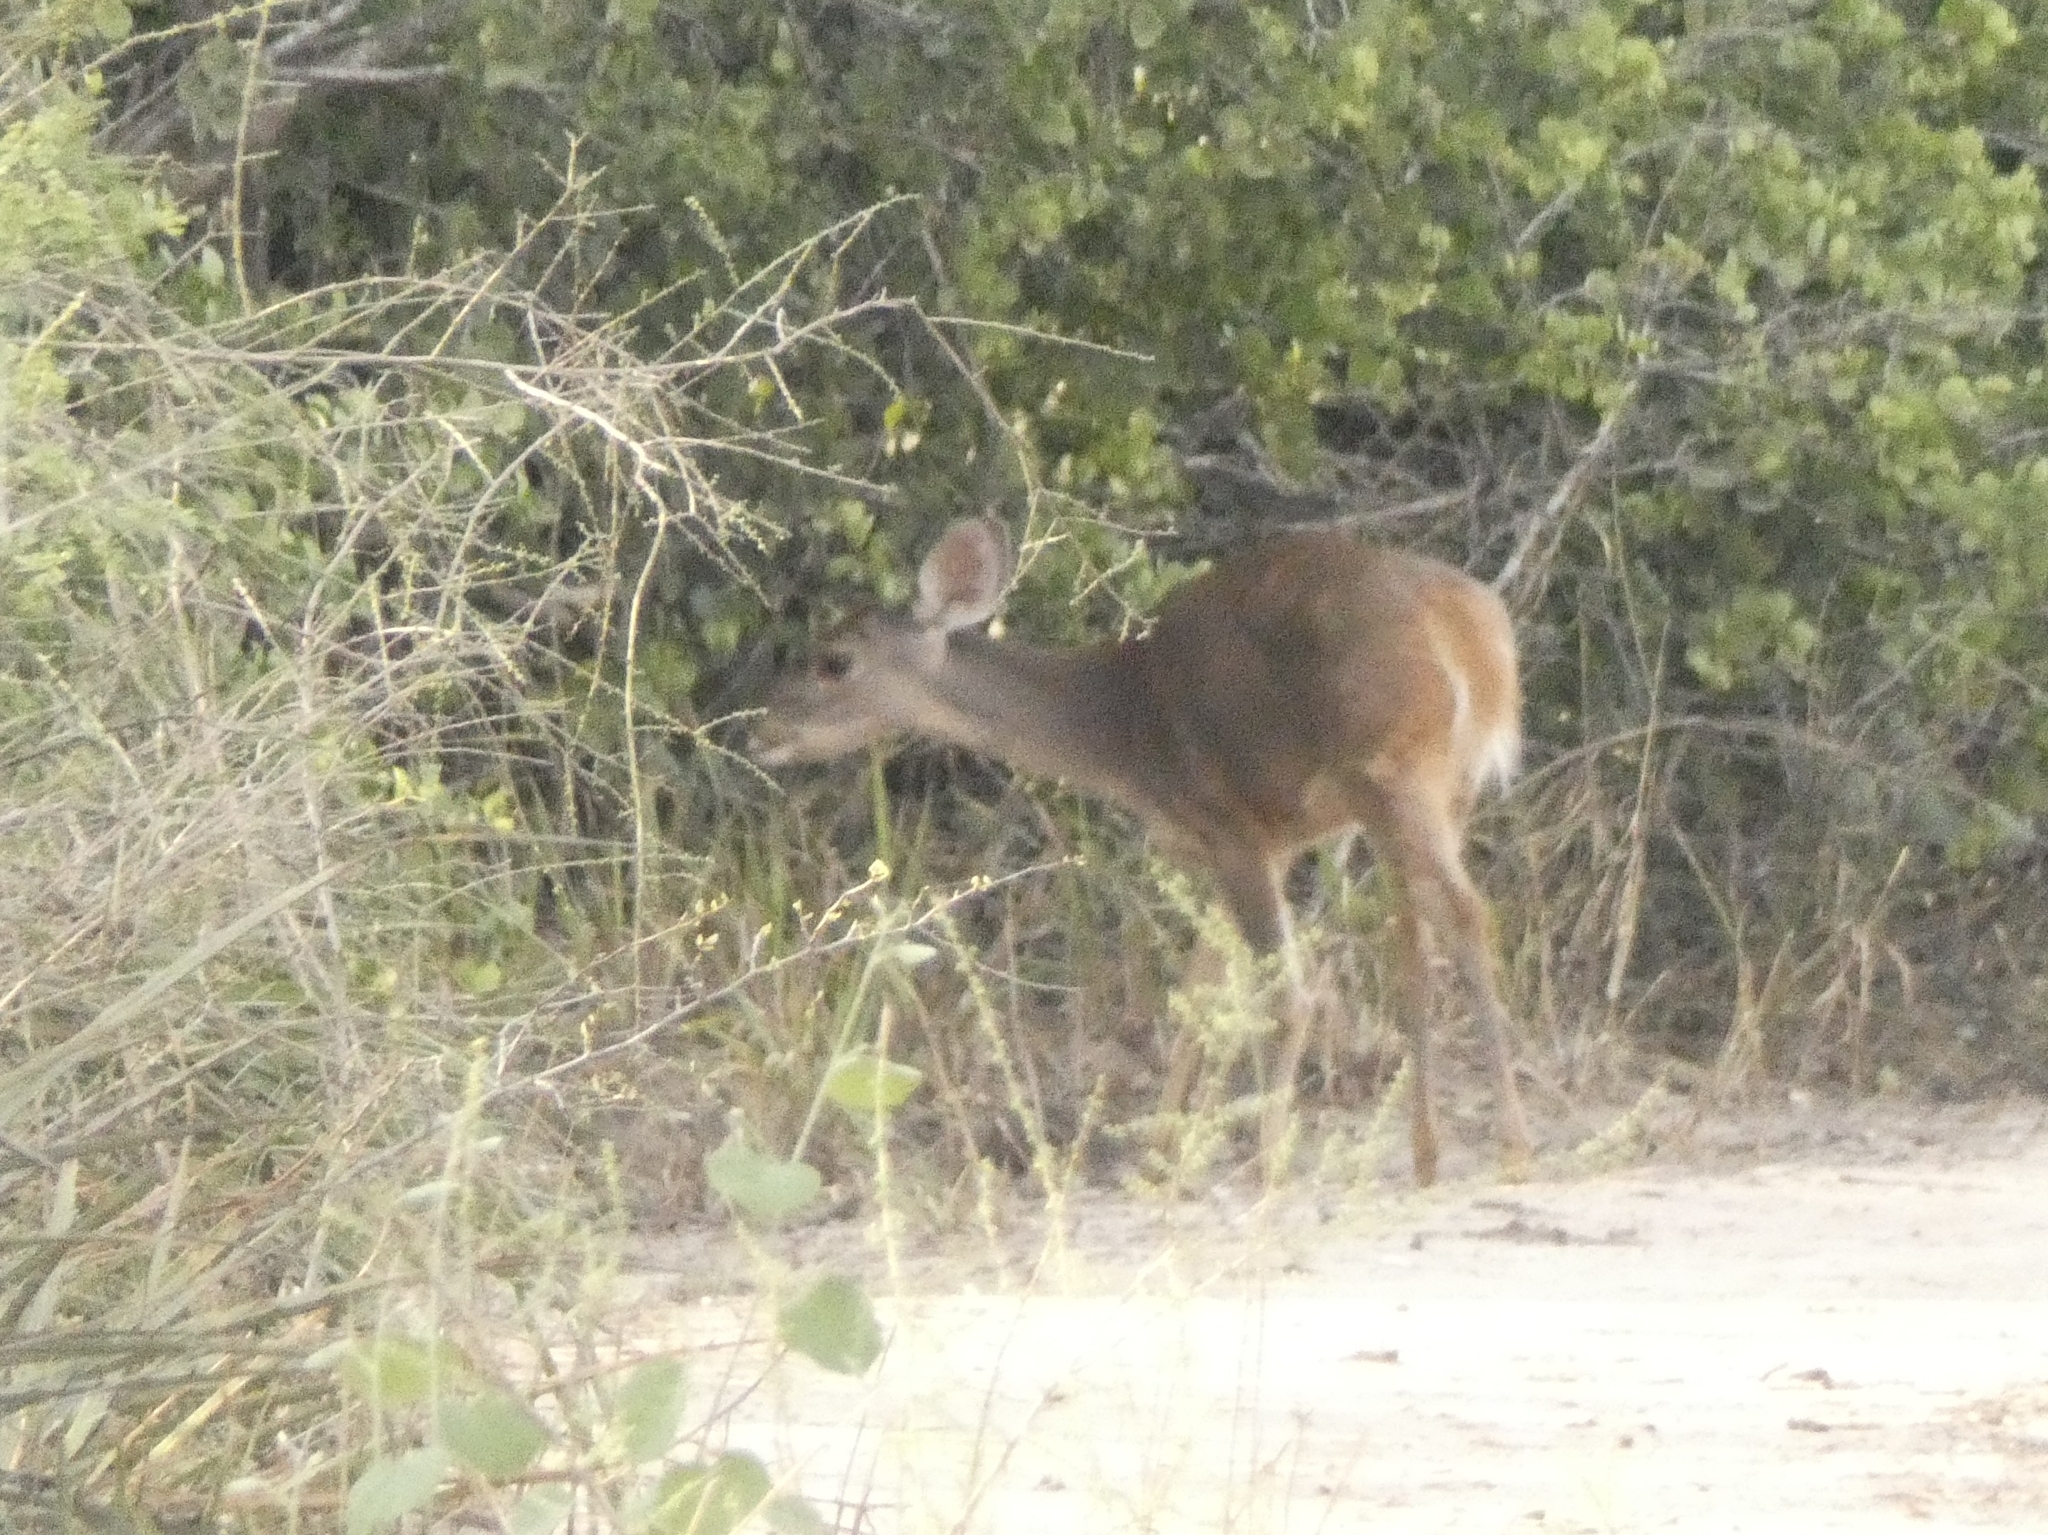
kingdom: Animalia
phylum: Chordata
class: Mammalia
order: Artiodactyla
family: Cervidae
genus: Mazama
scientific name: Mazama gouazoubira
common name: Gray brocket
